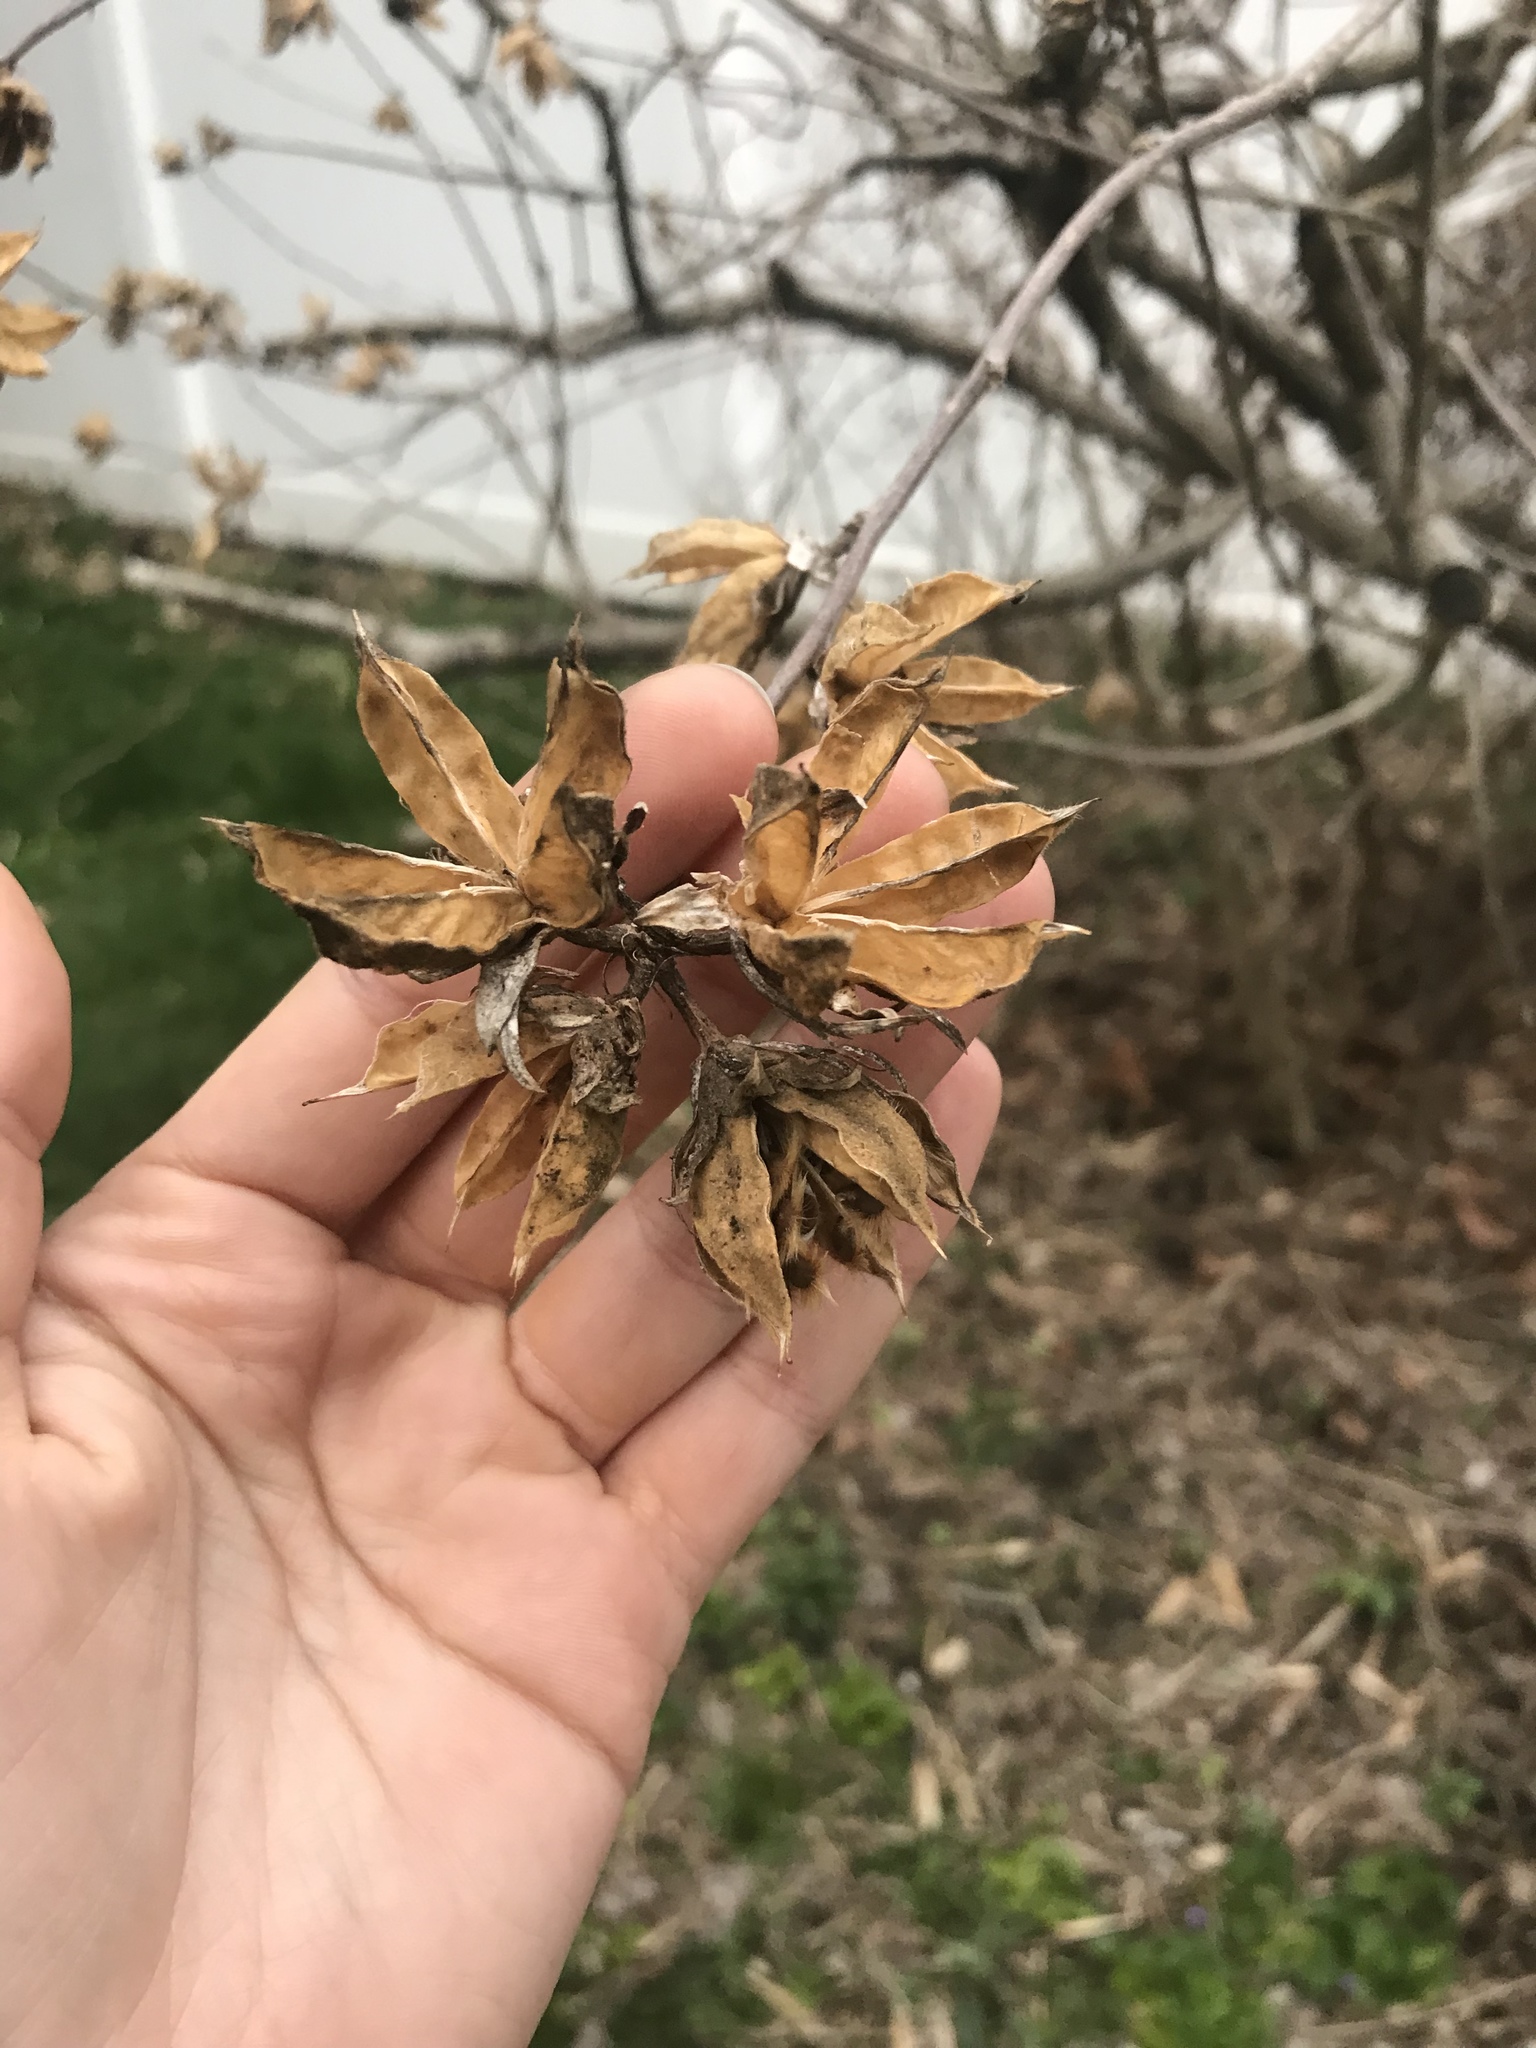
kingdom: Plantae
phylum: Tracheophyta
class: Magnoliopsida
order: Malvales
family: Malvaceae
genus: Hibiscus
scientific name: Hibiscus syriacus
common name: Syrian ketmia
